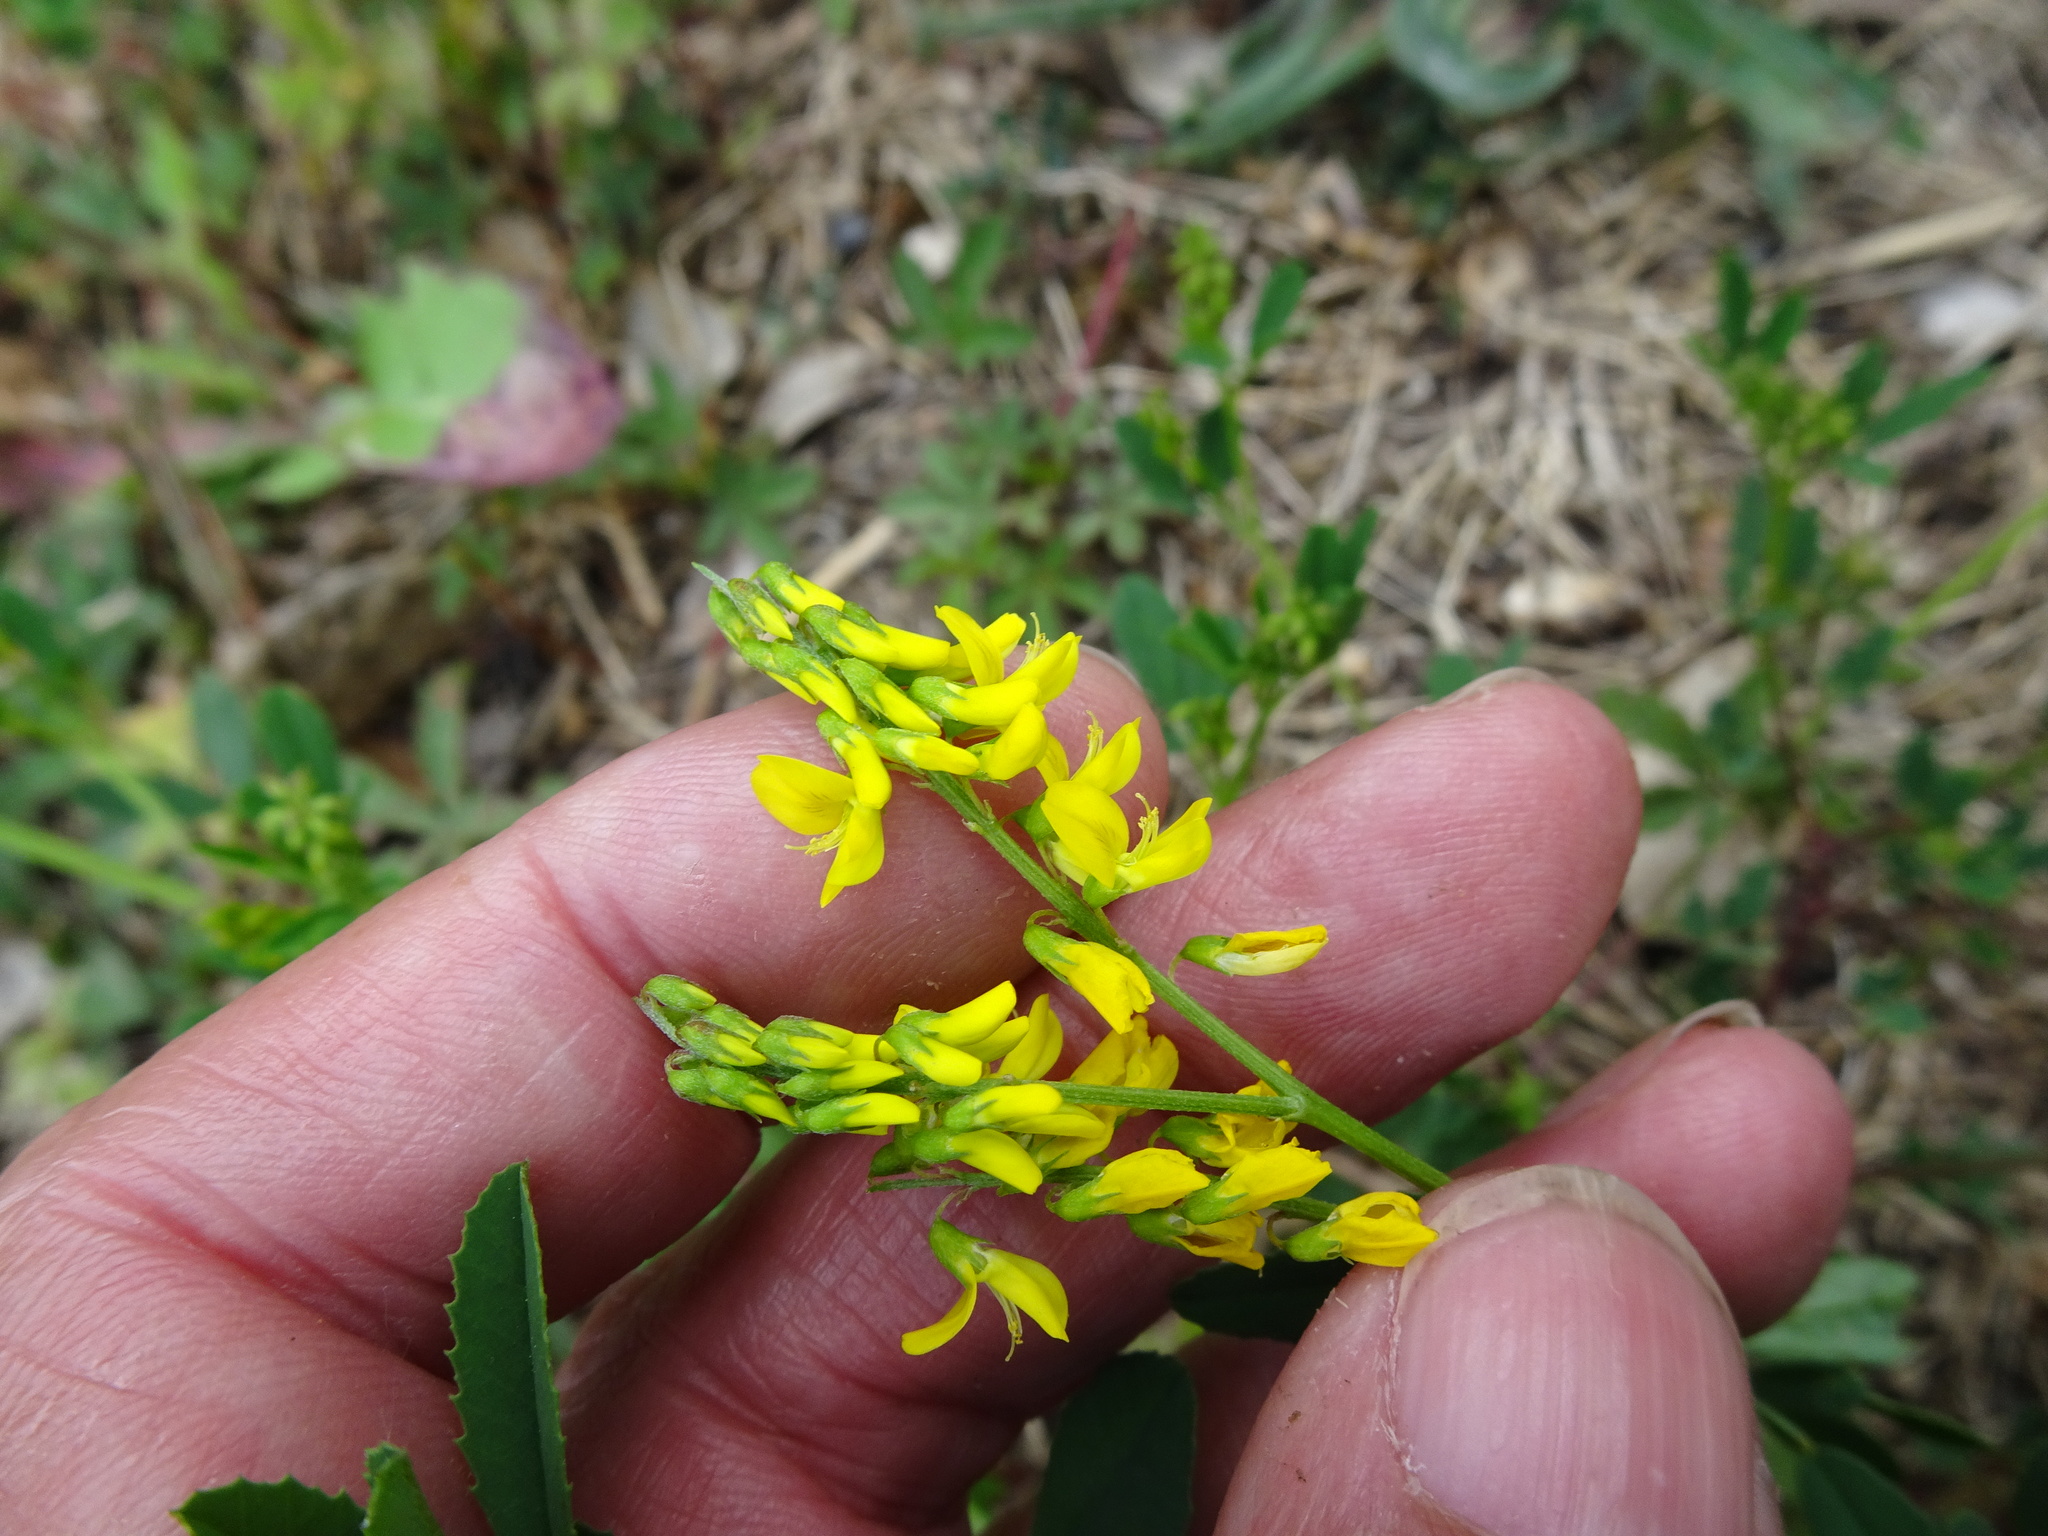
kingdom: Plantae
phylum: Tracheophyta
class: Magnoliopsida
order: Fabales
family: Fabaceae
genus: Melilotus
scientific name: Melilotus altissimus
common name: Tall melilot
